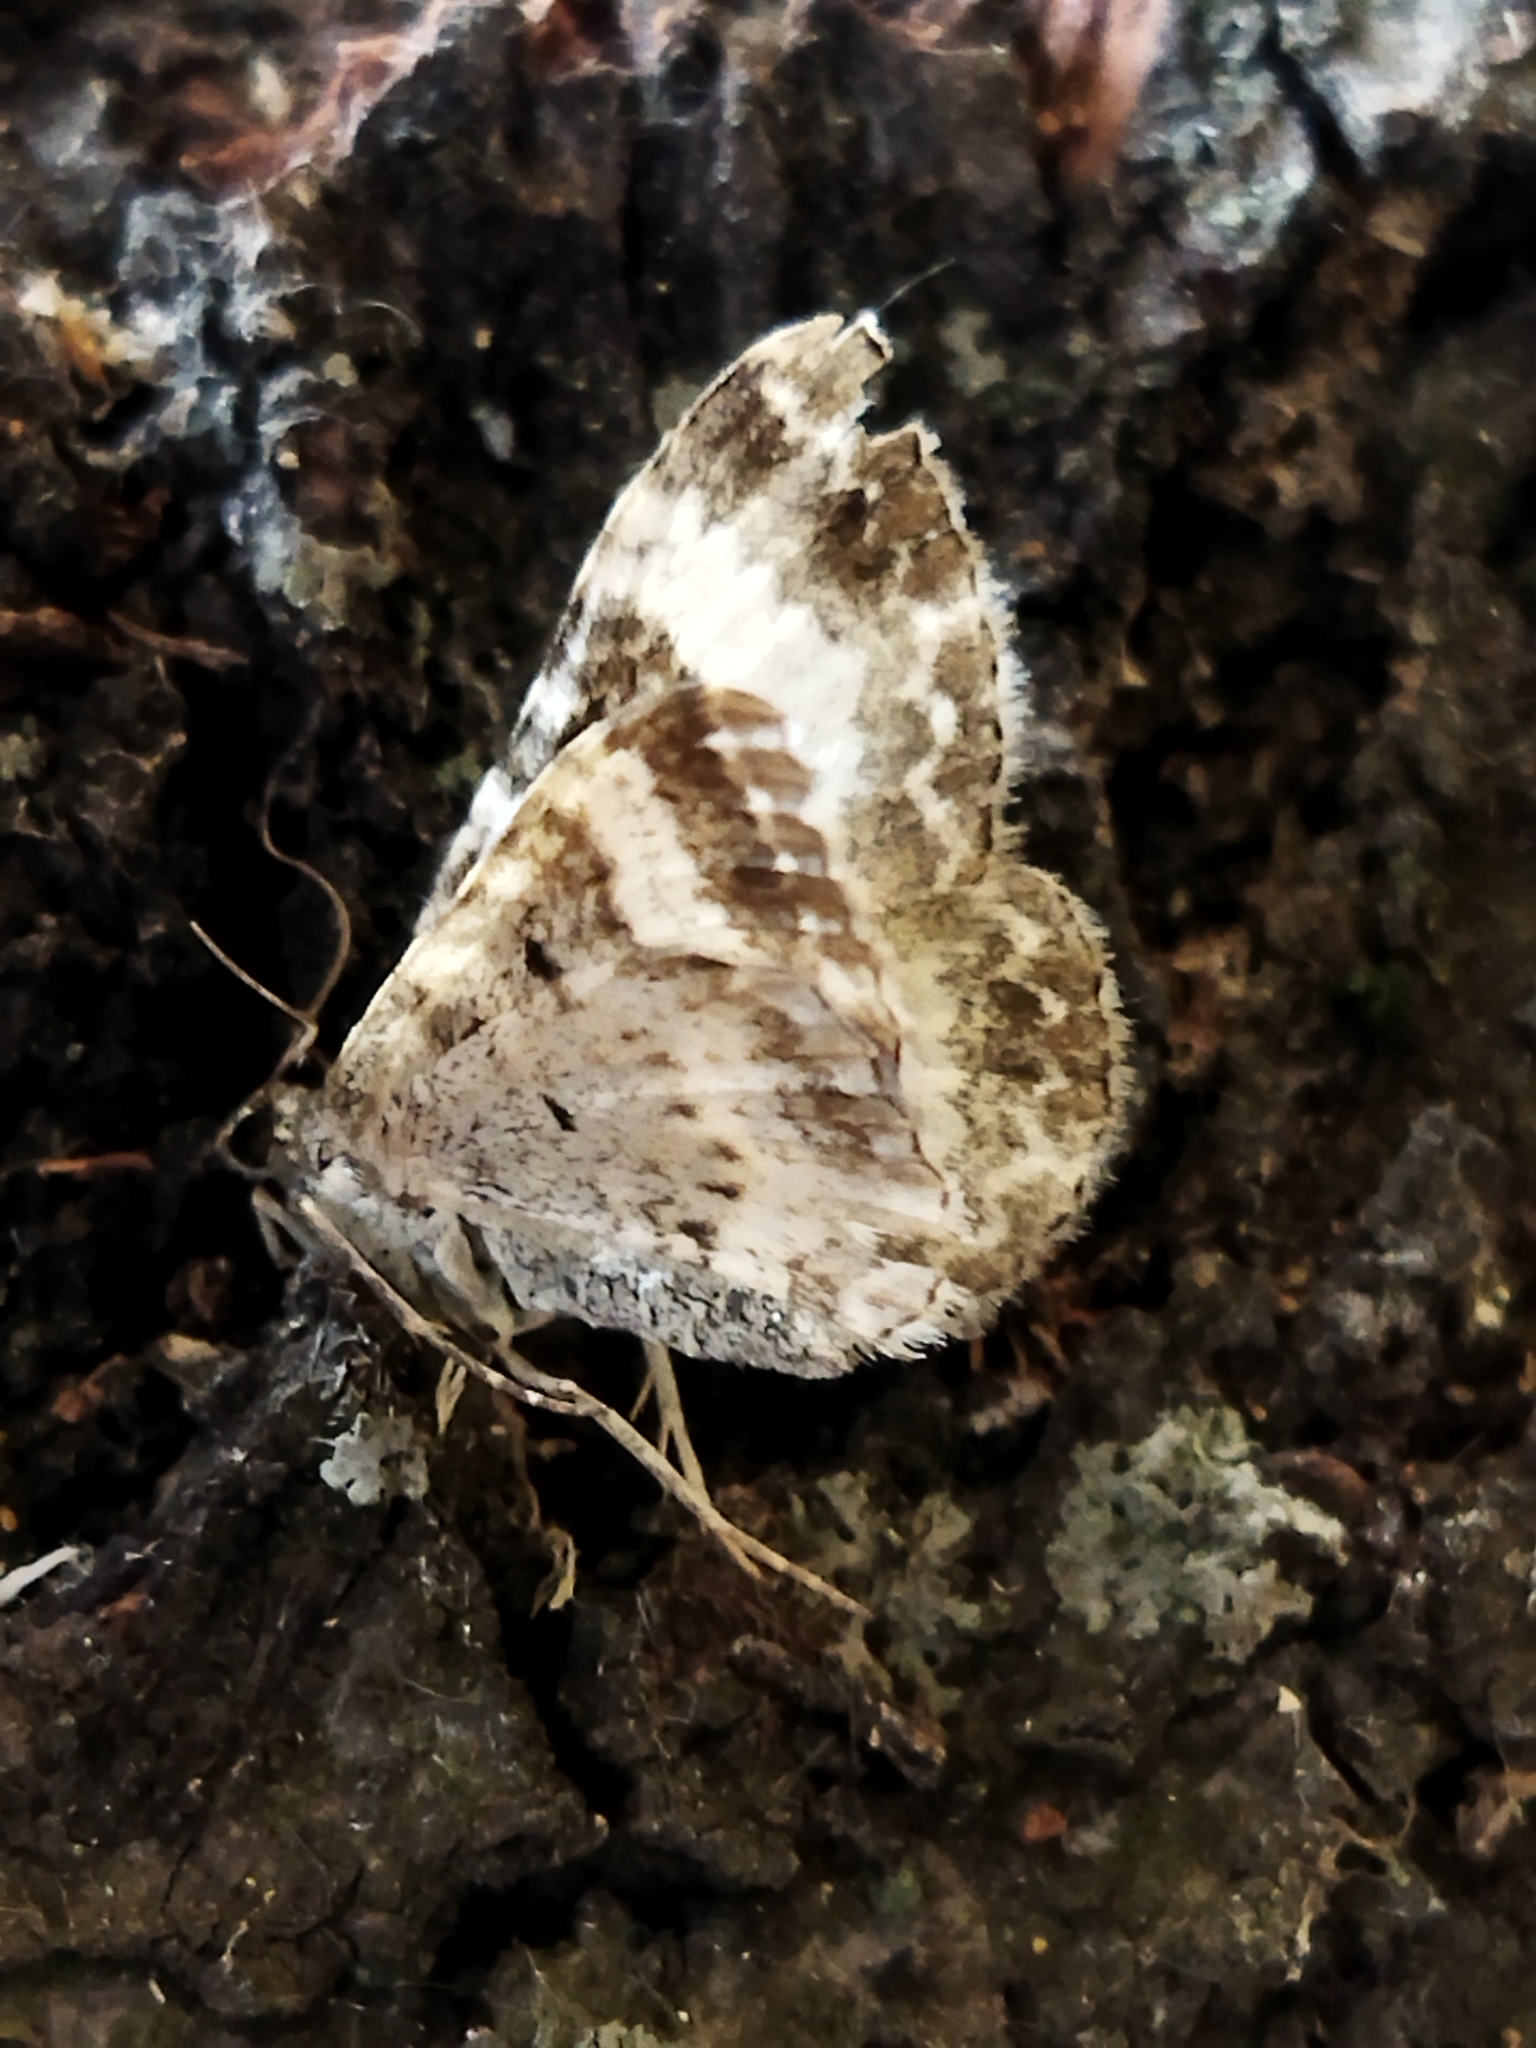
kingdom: Animalia
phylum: Arthropoda
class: Insecta
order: Lepidoptera
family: Geometridae
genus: Epirrhoe
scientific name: Epirrhoe alternata
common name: Common carpet
